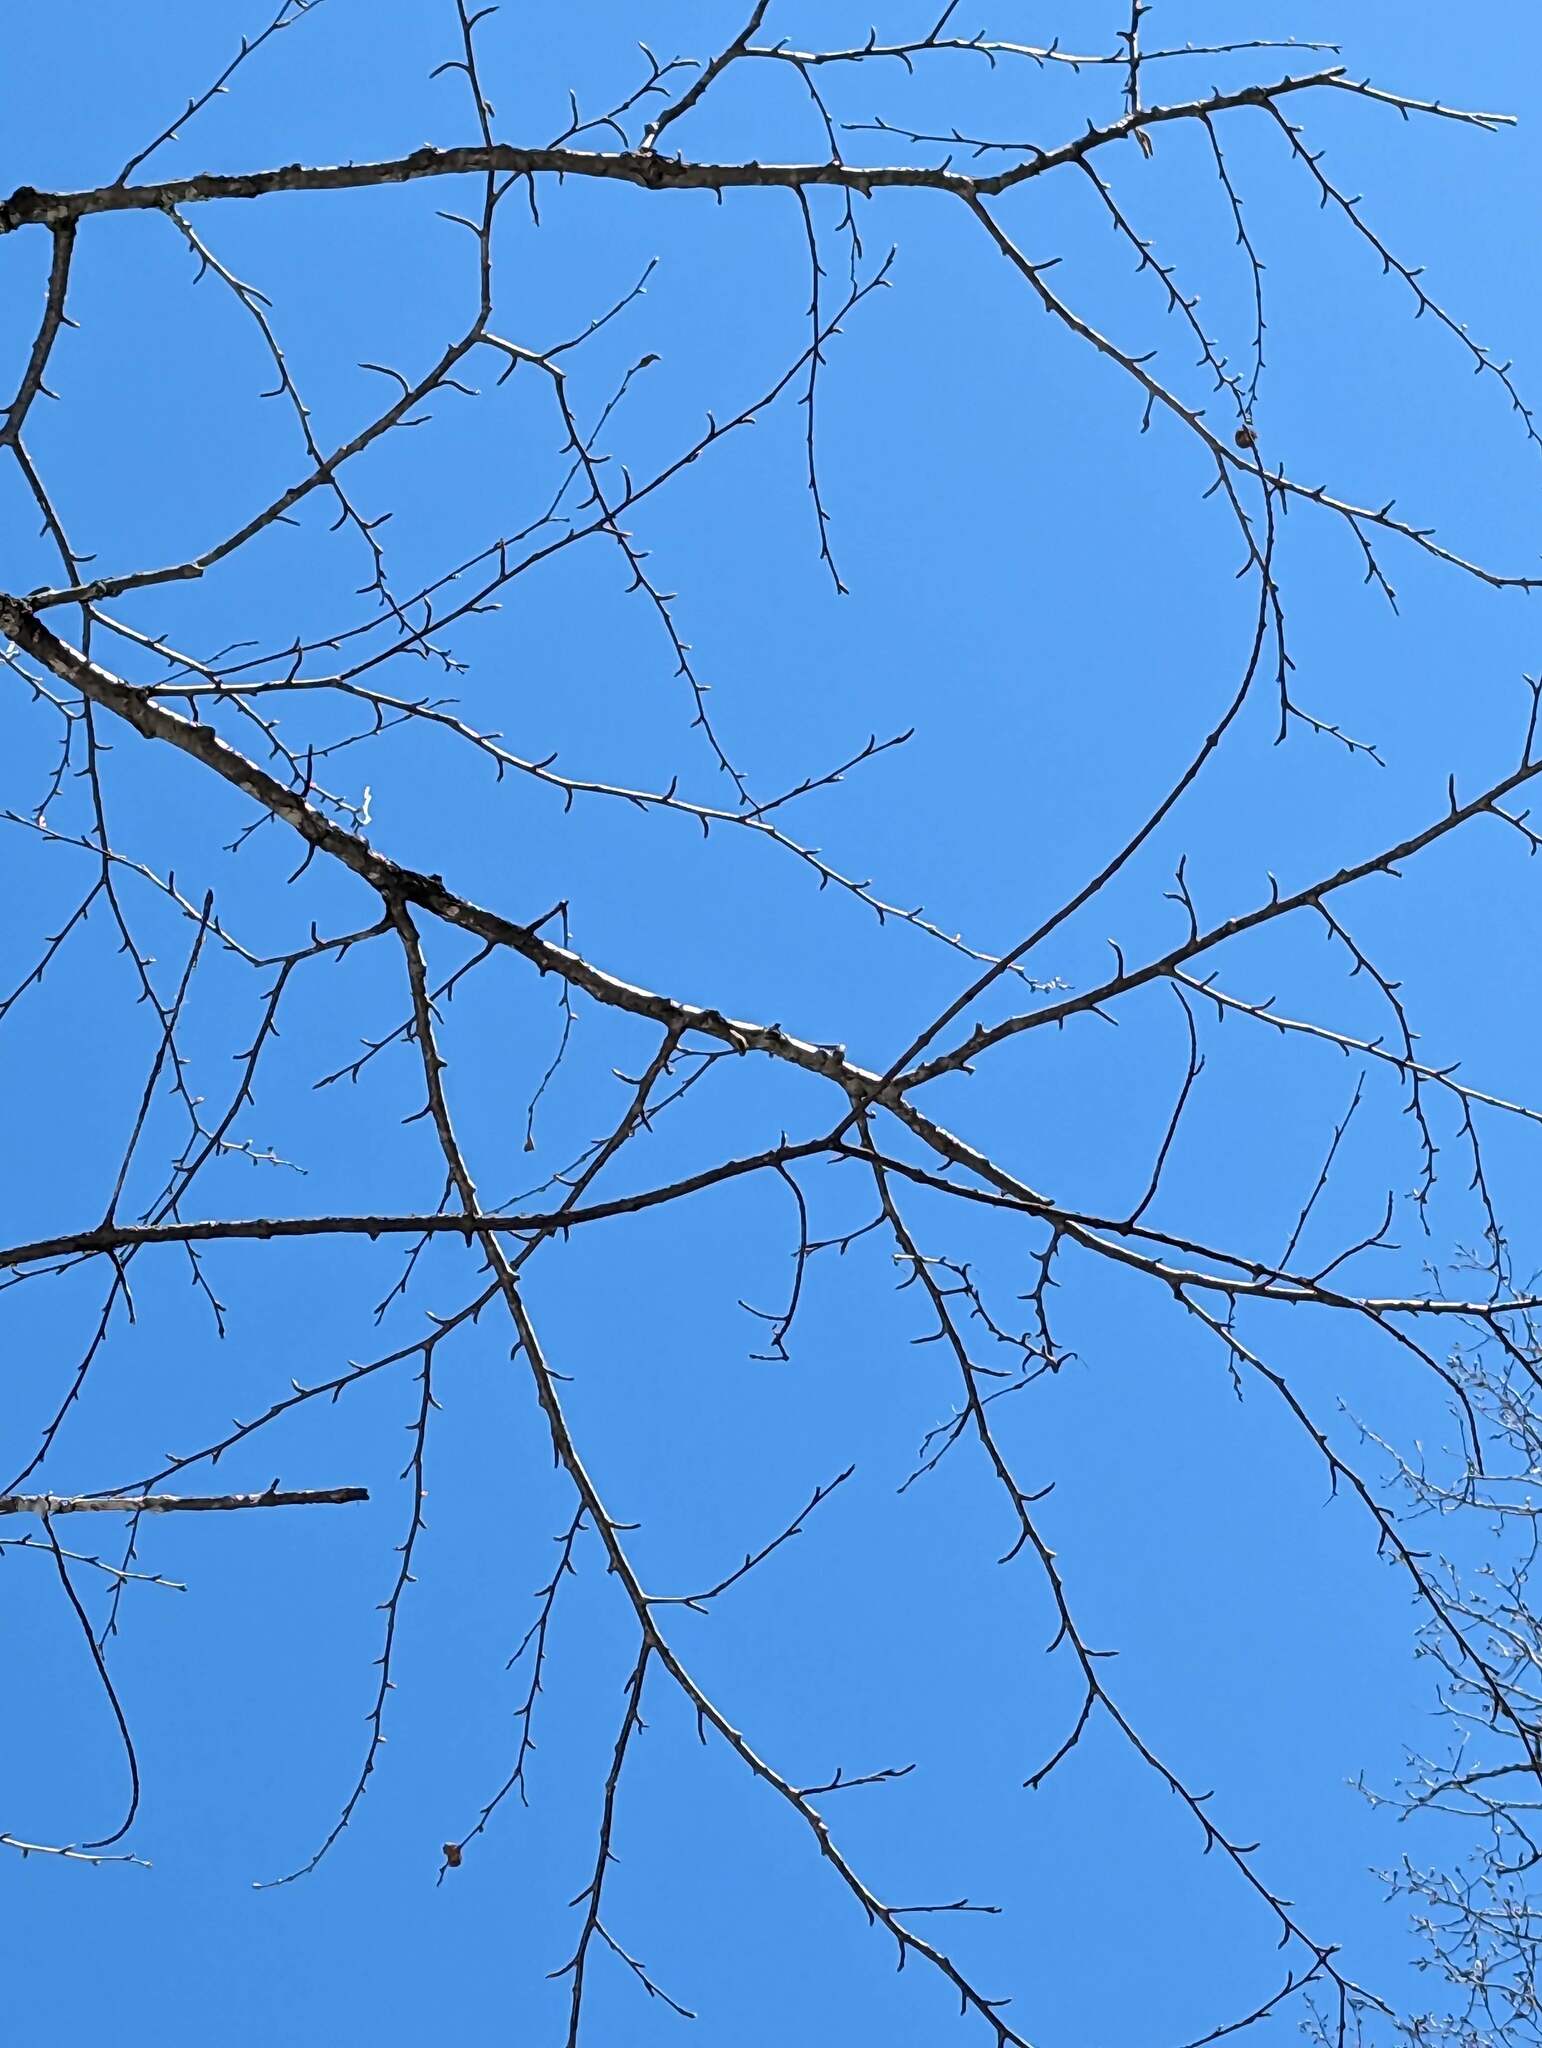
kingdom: Plantae
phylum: Tracheophyta
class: Magnoliopsida
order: Fagales
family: Betulaceae
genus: Betula
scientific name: Betula alleghaniensis
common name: Yellow birch
